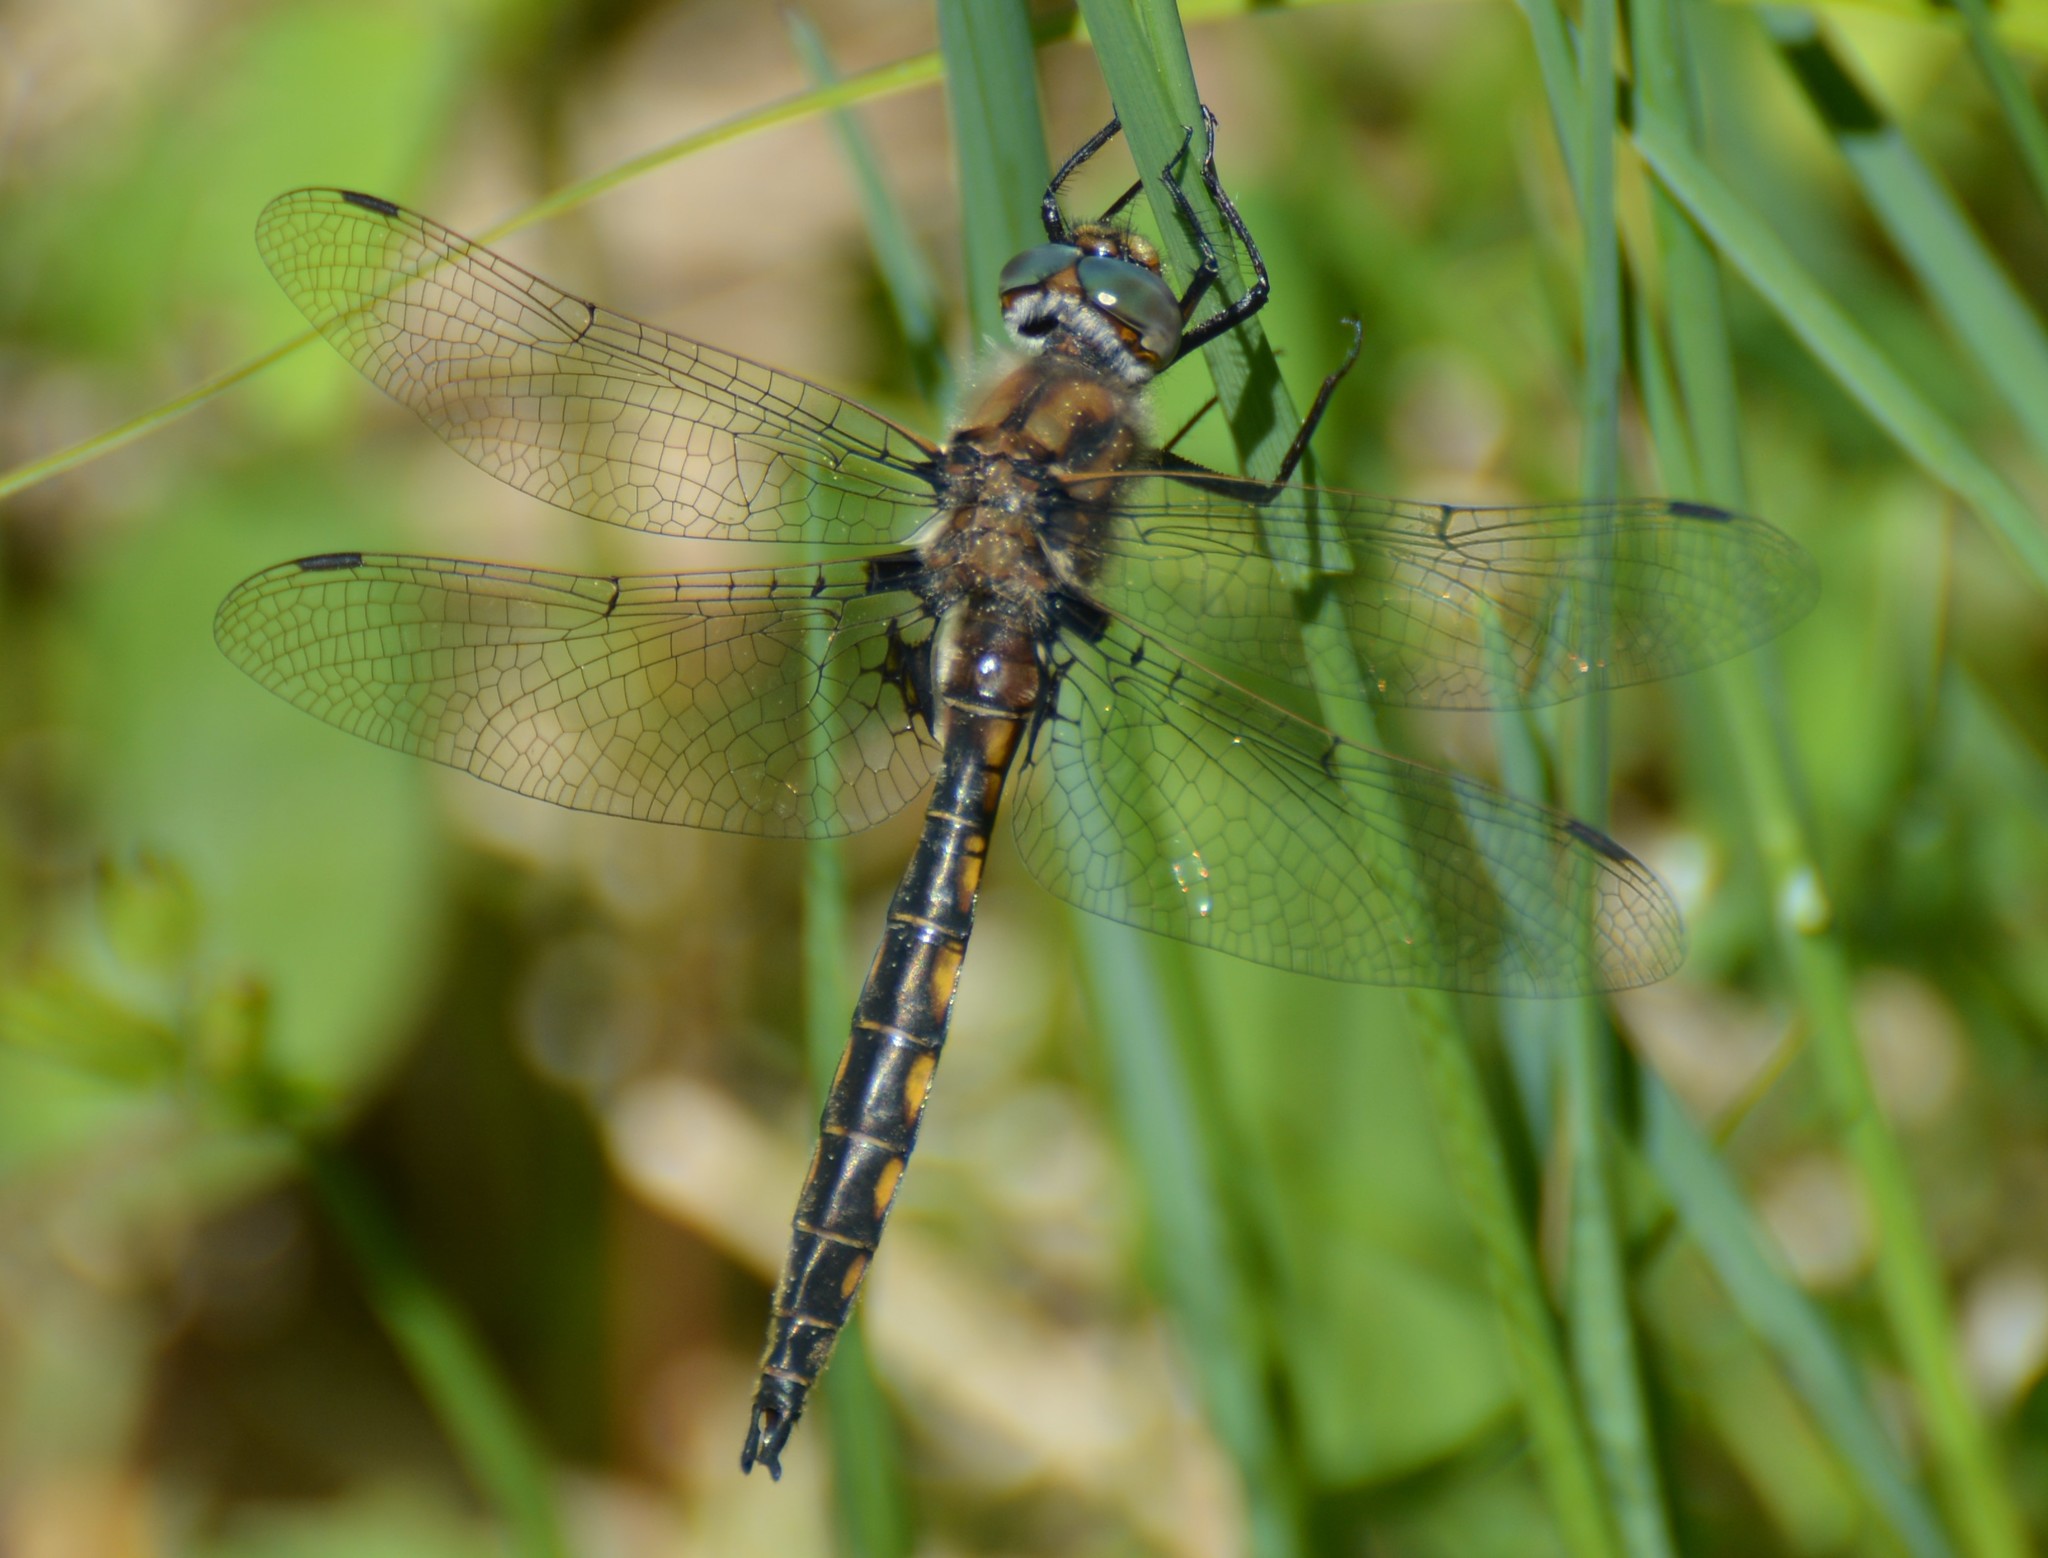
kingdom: Animalia
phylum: Arthropoda
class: Insecta
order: Odonata
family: Corduliidae
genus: Epitheca
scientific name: Epitheca canis
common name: Beaverpond baskettail
